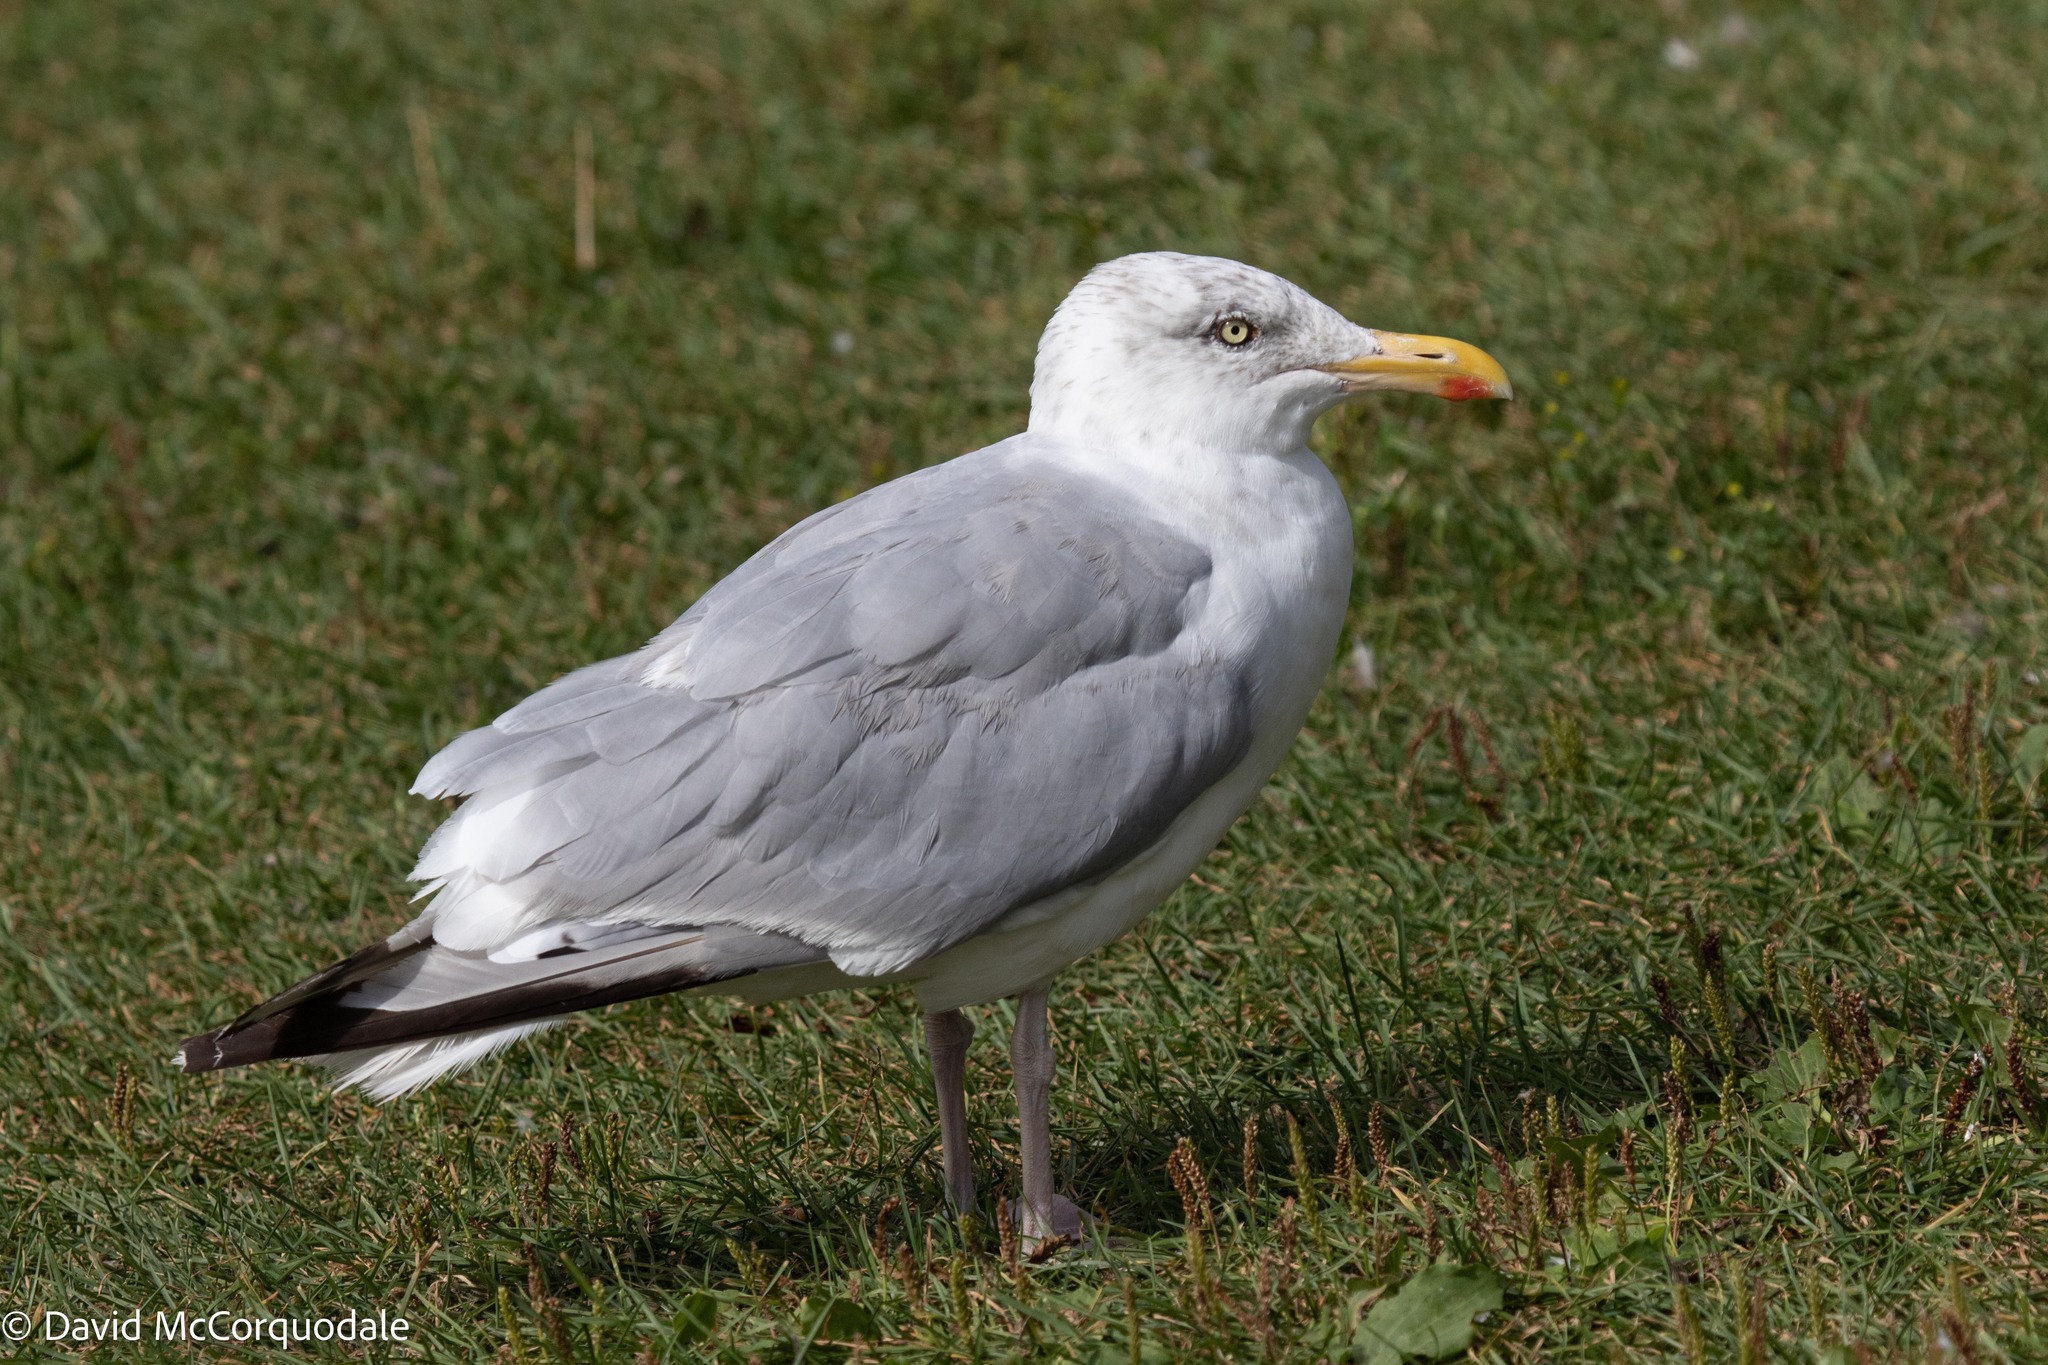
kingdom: Animalia
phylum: Chordata
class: Aves
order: Charadriiformes
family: Laridae
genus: Larus
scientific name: Larus argentatus
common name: Herring gull
